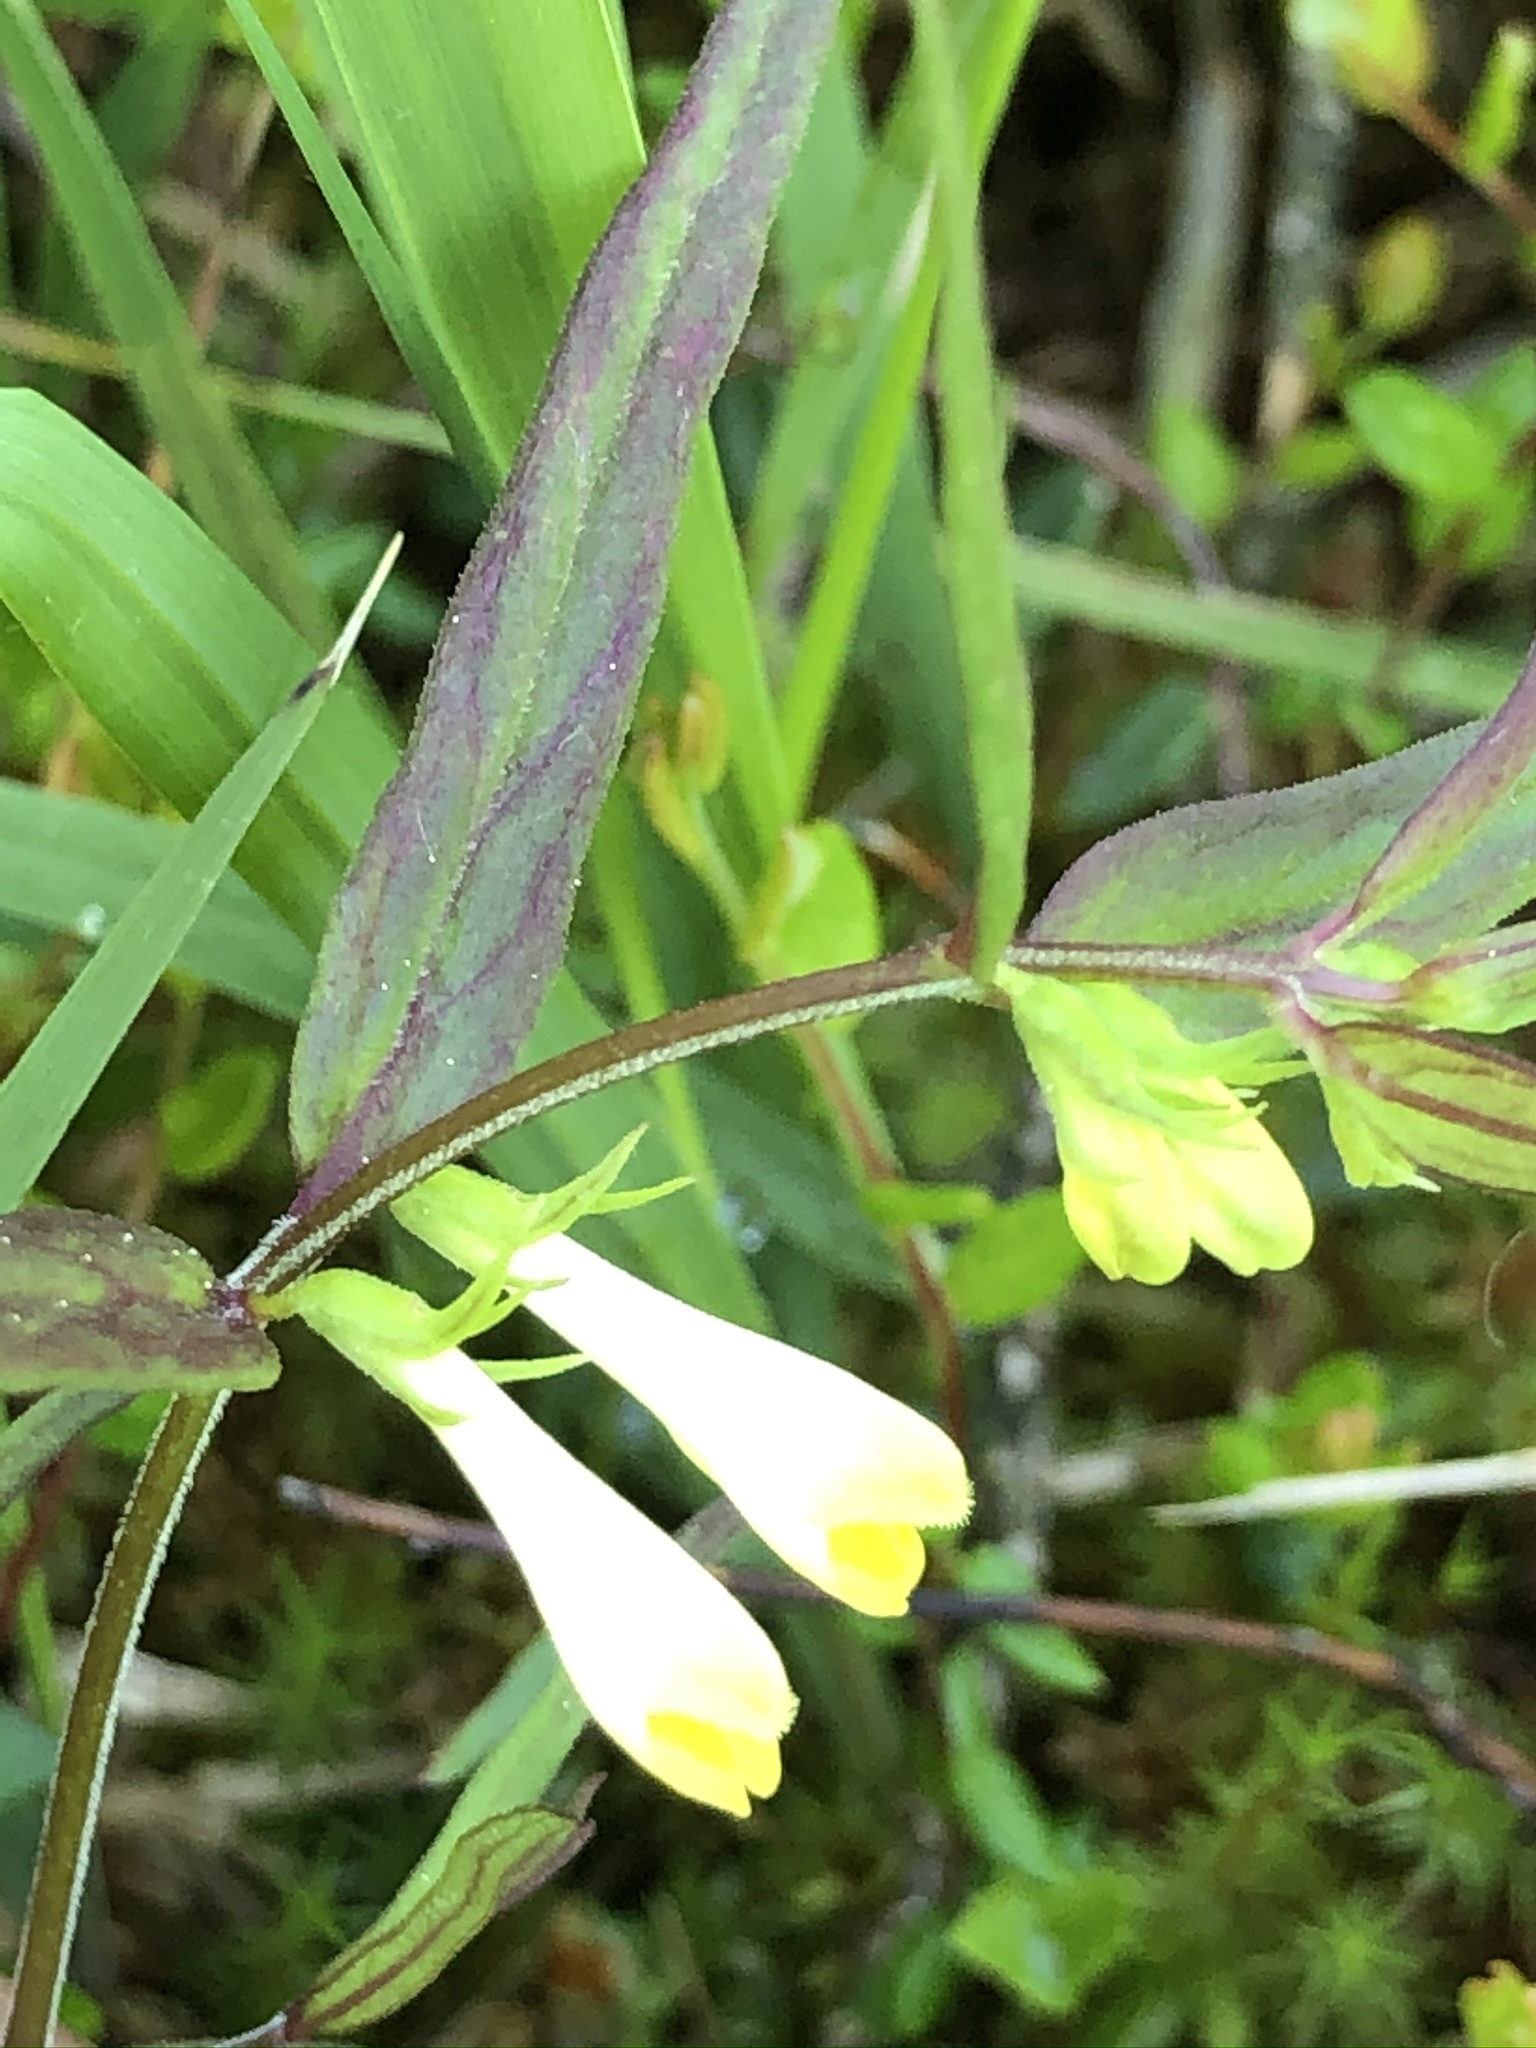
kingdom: Plantae
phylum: Tracheophyta
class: Magnoliopsida
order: Lamiales
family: Orobanchaceae
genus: Melampyrum
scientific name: Melampyrum pratense
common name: Common cow-wheat
